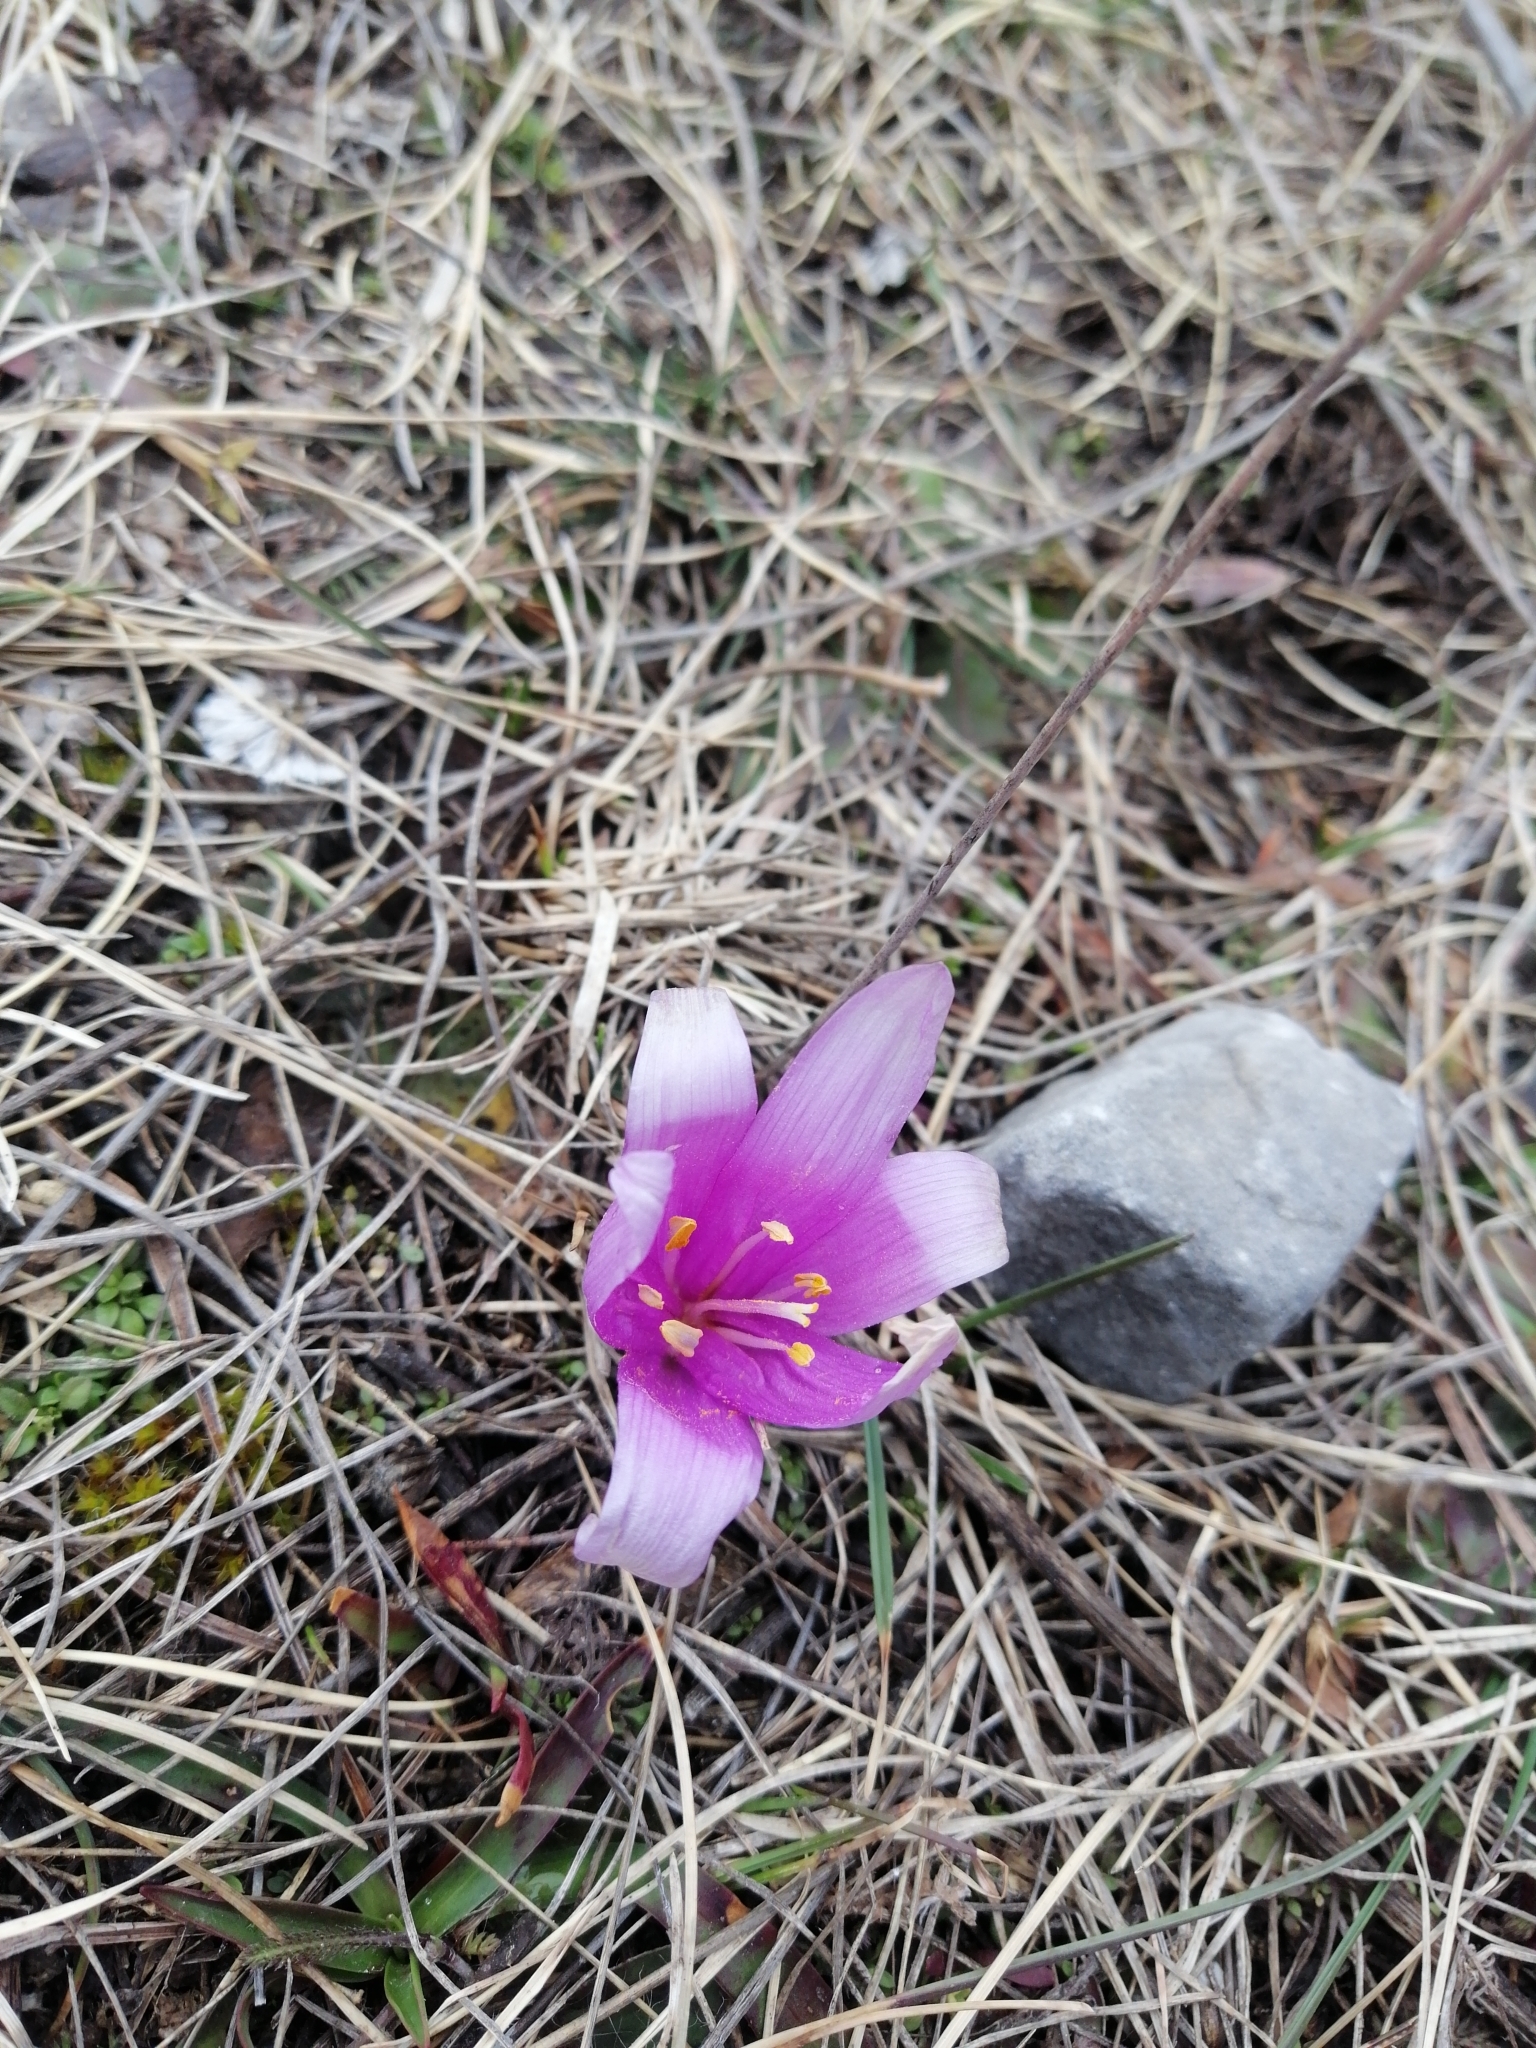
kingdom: Plantae
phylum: Tracheophyta
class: Liliopsida
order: Liliales
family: Colchicaceae
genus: Colchicum
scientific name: Colchicum bulbocodium
